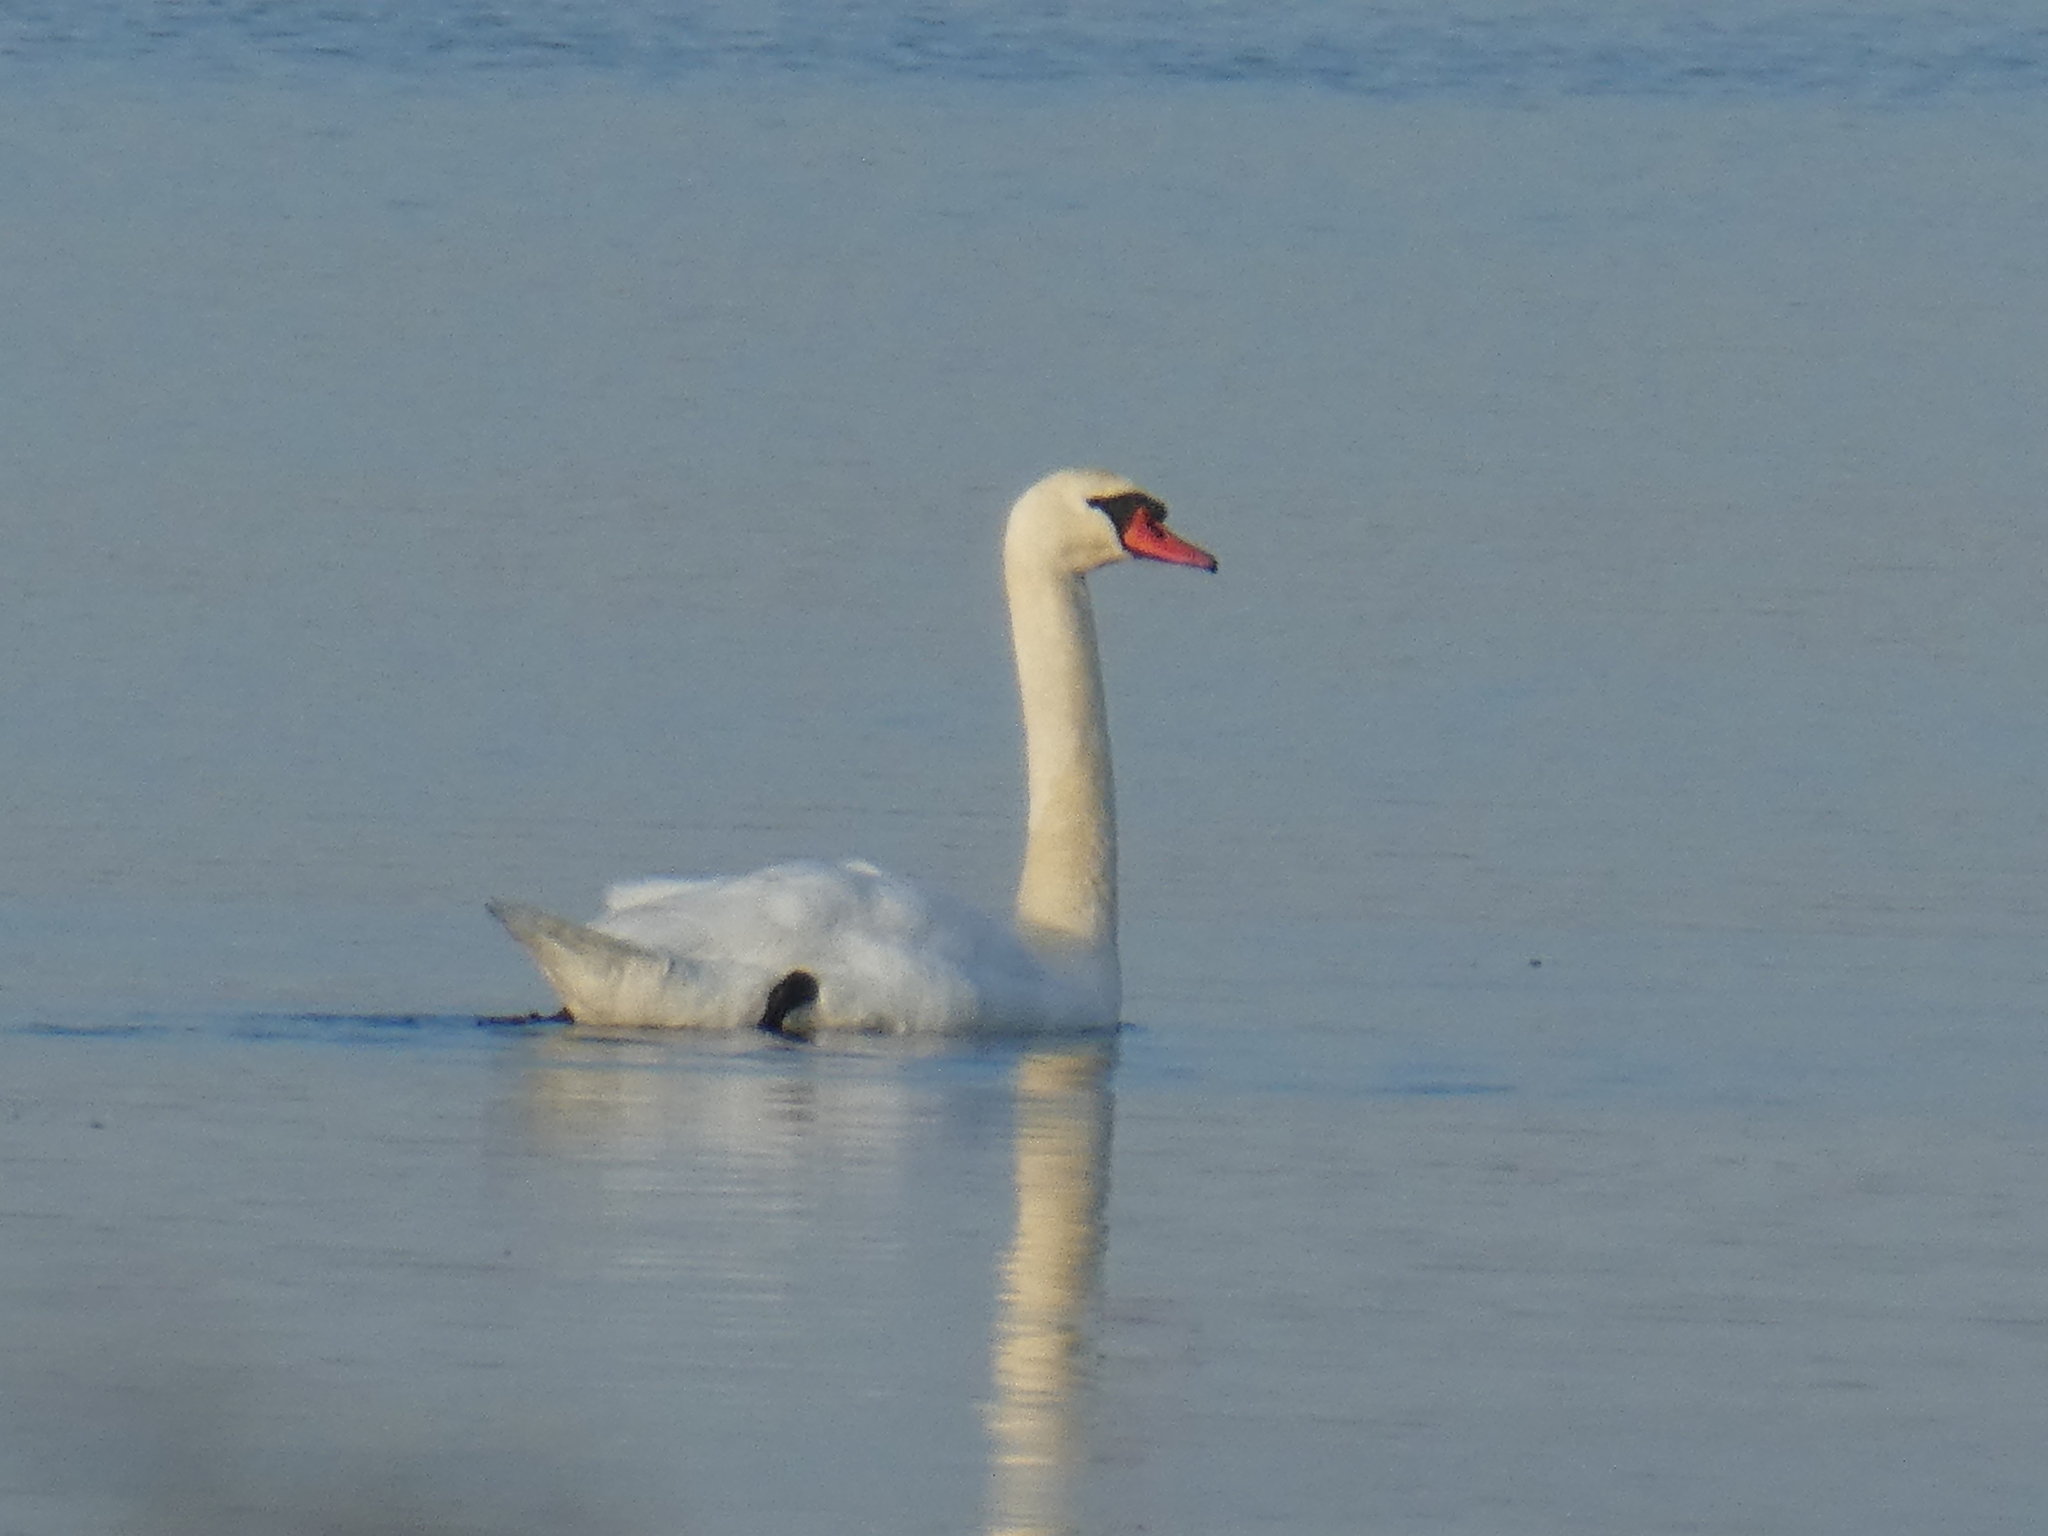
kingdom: Animalia
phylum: Chordata
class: Aves
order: Anseriformes
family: Anatidae
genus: Cygnus
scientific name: Cygnus olor
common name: Mute swan
